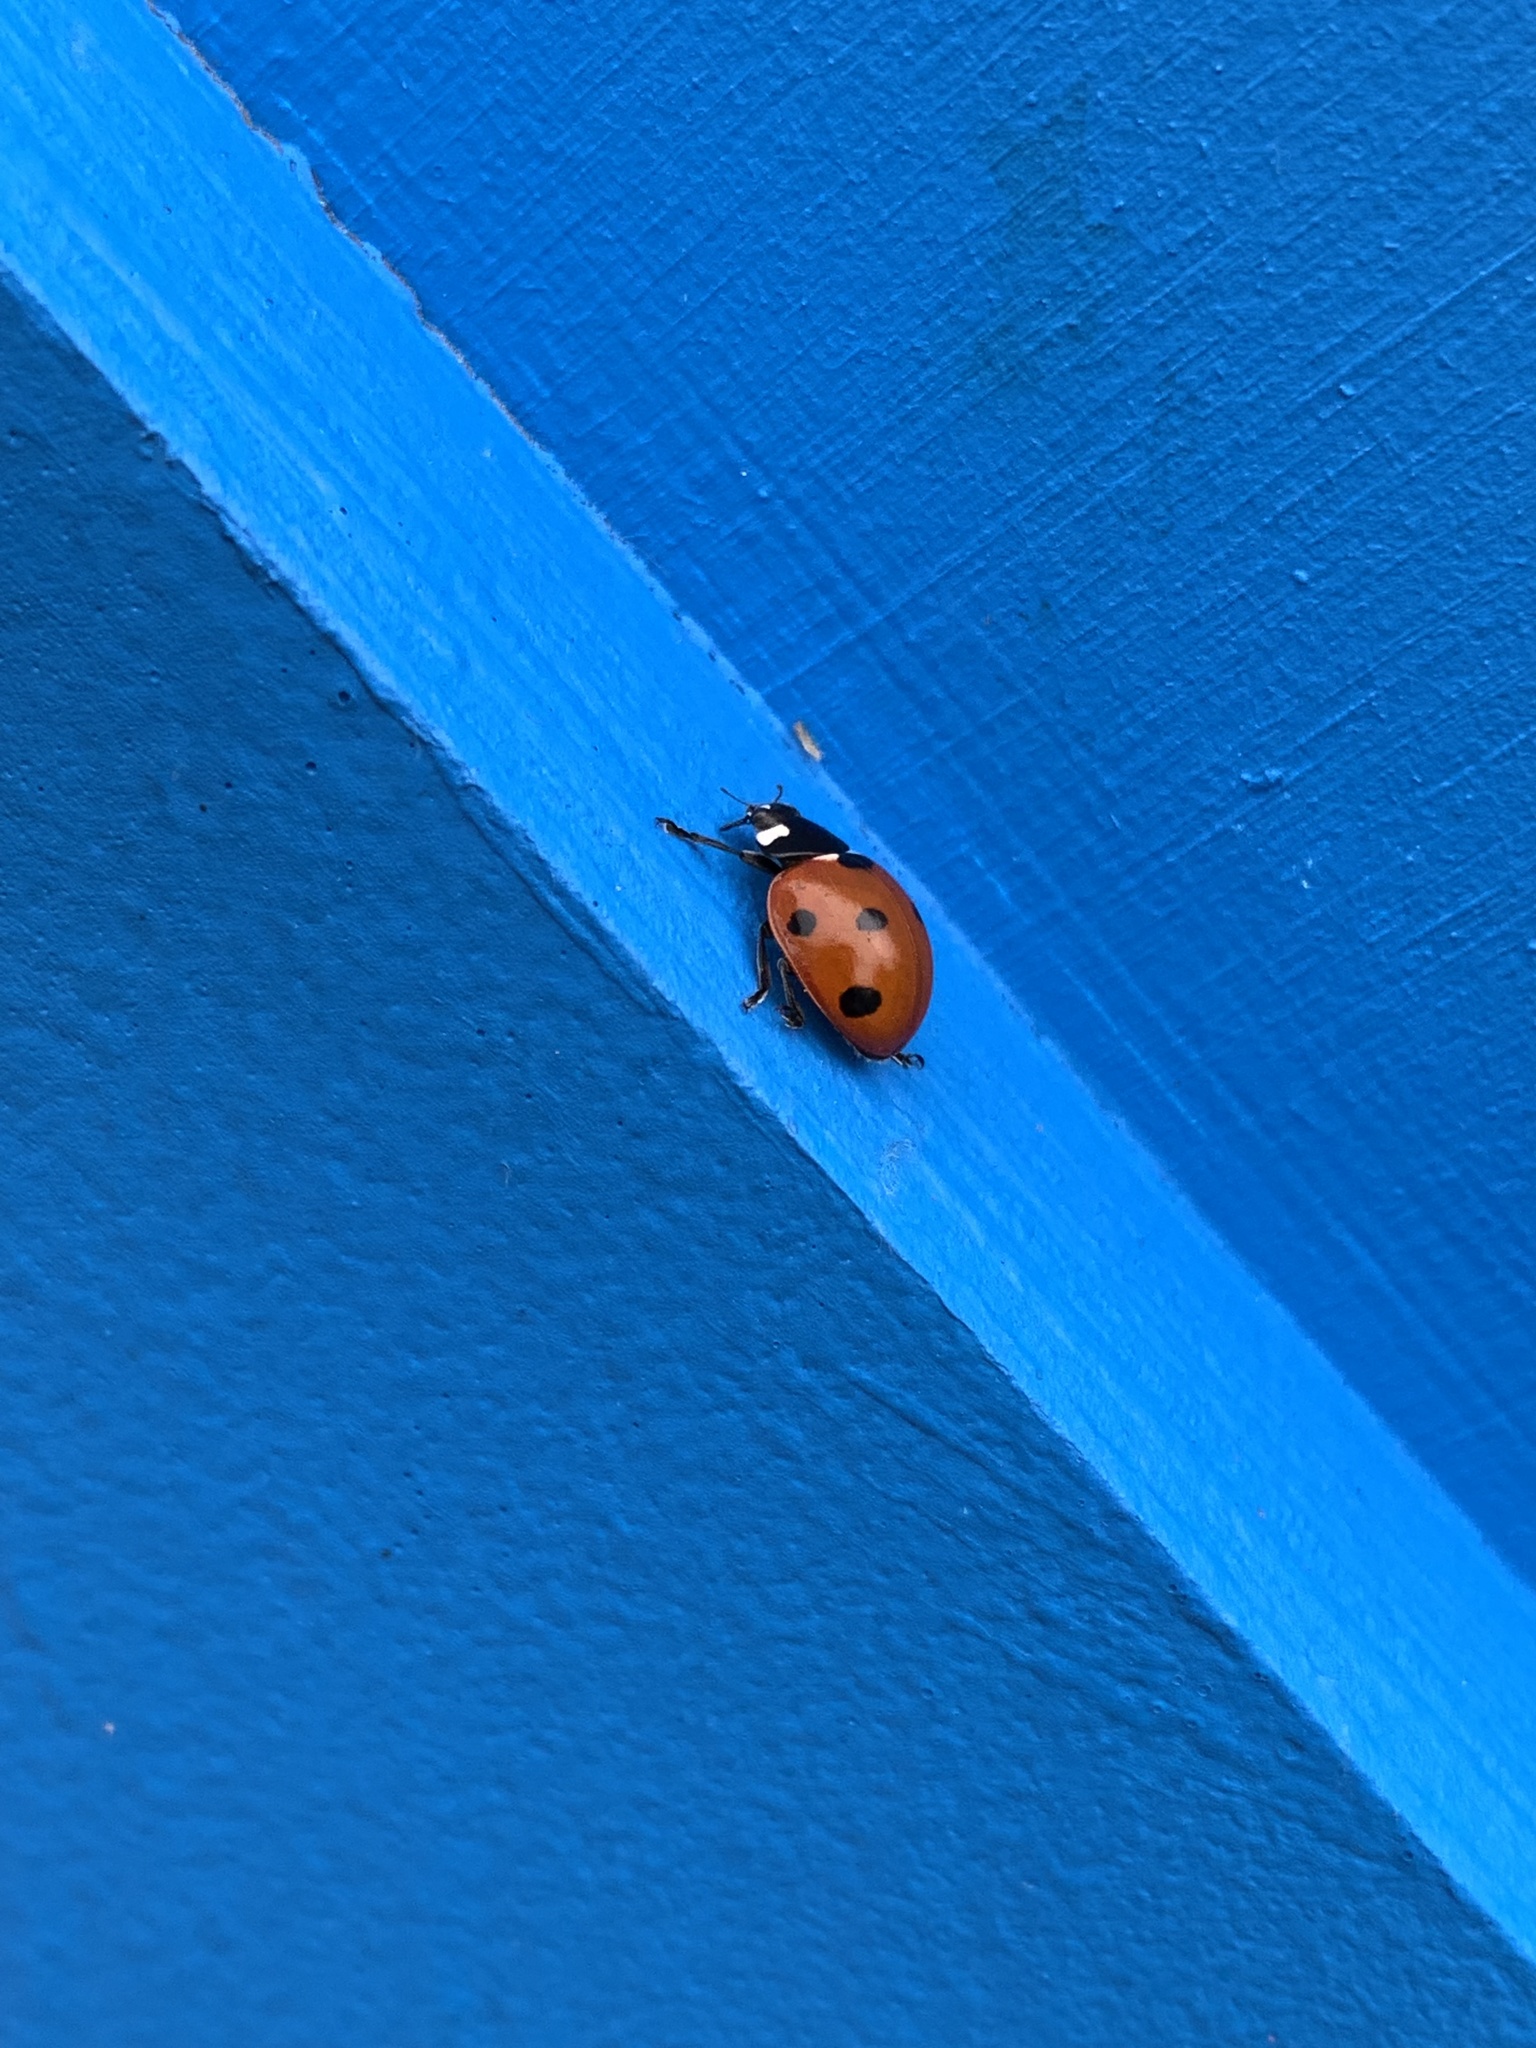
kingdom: Animalia
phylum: Arthropoda
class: Insecta
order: Coleoptera
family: Coccinellidae
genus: Coccinella
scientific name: Coccinella septempunctata
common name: Sevenspotted lady beetle
